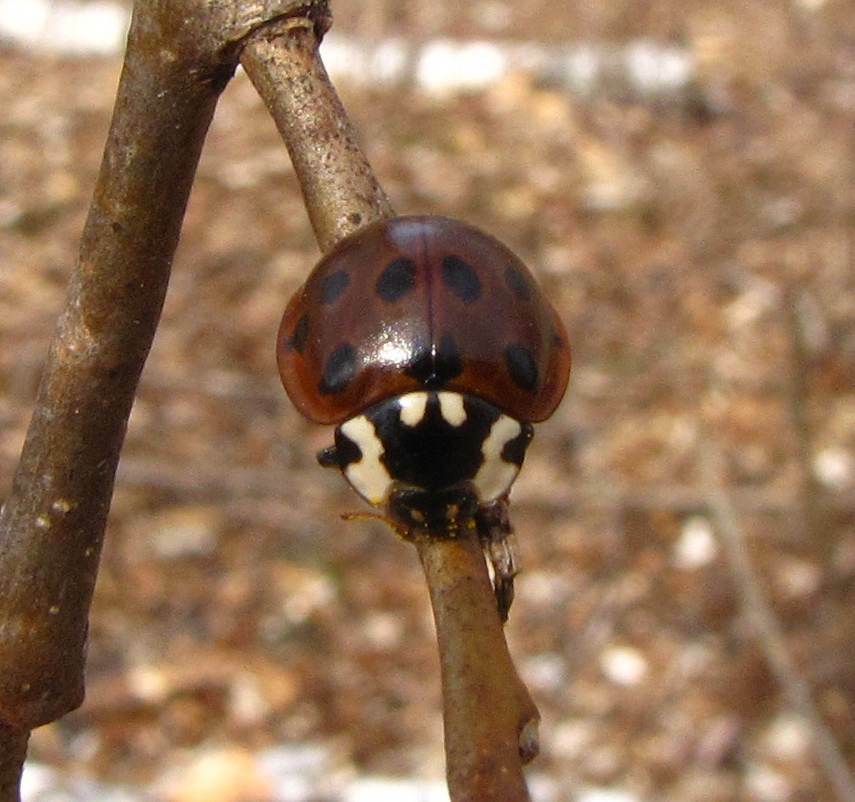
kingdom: Animalia
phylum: Arthropoda
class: Insecta
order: Coleoptera
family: Coccinellidae
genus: Anatis
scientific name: Anatis labiculata
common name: Fifteen-spotted lady beetle
